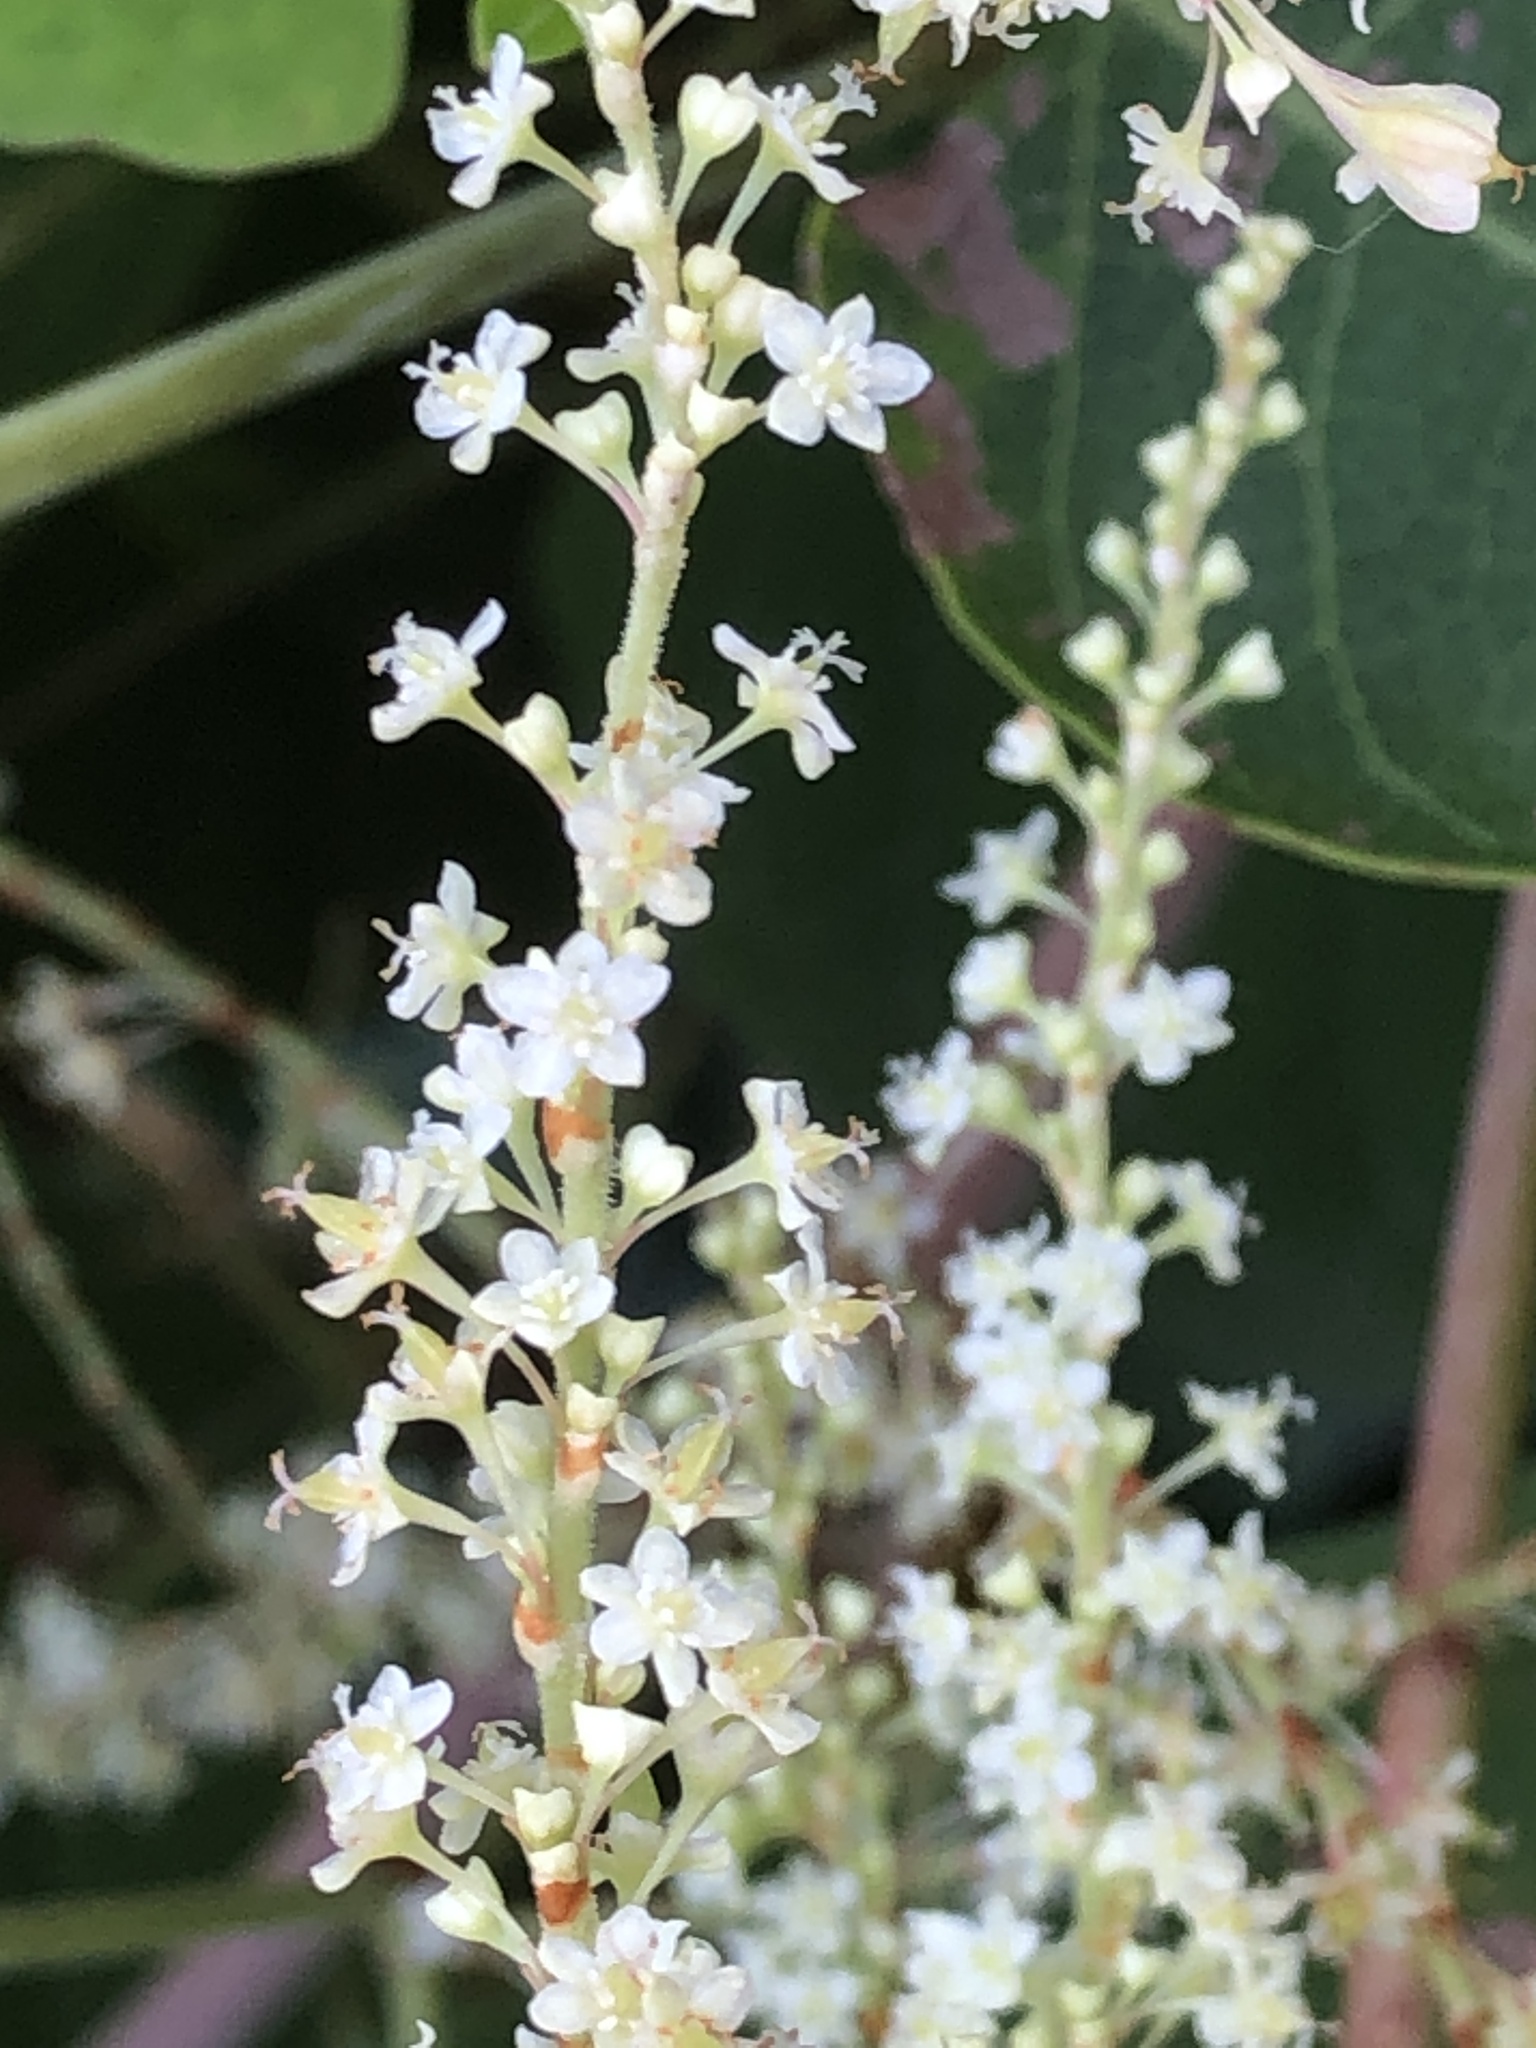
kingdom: Plantae
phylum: Tracheophyta
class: Magnoliopsida
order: Caryophyllales
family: Polygonaceae
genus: Reynoutria
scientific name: Reynoutria japonica
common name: Japanese knotweed
